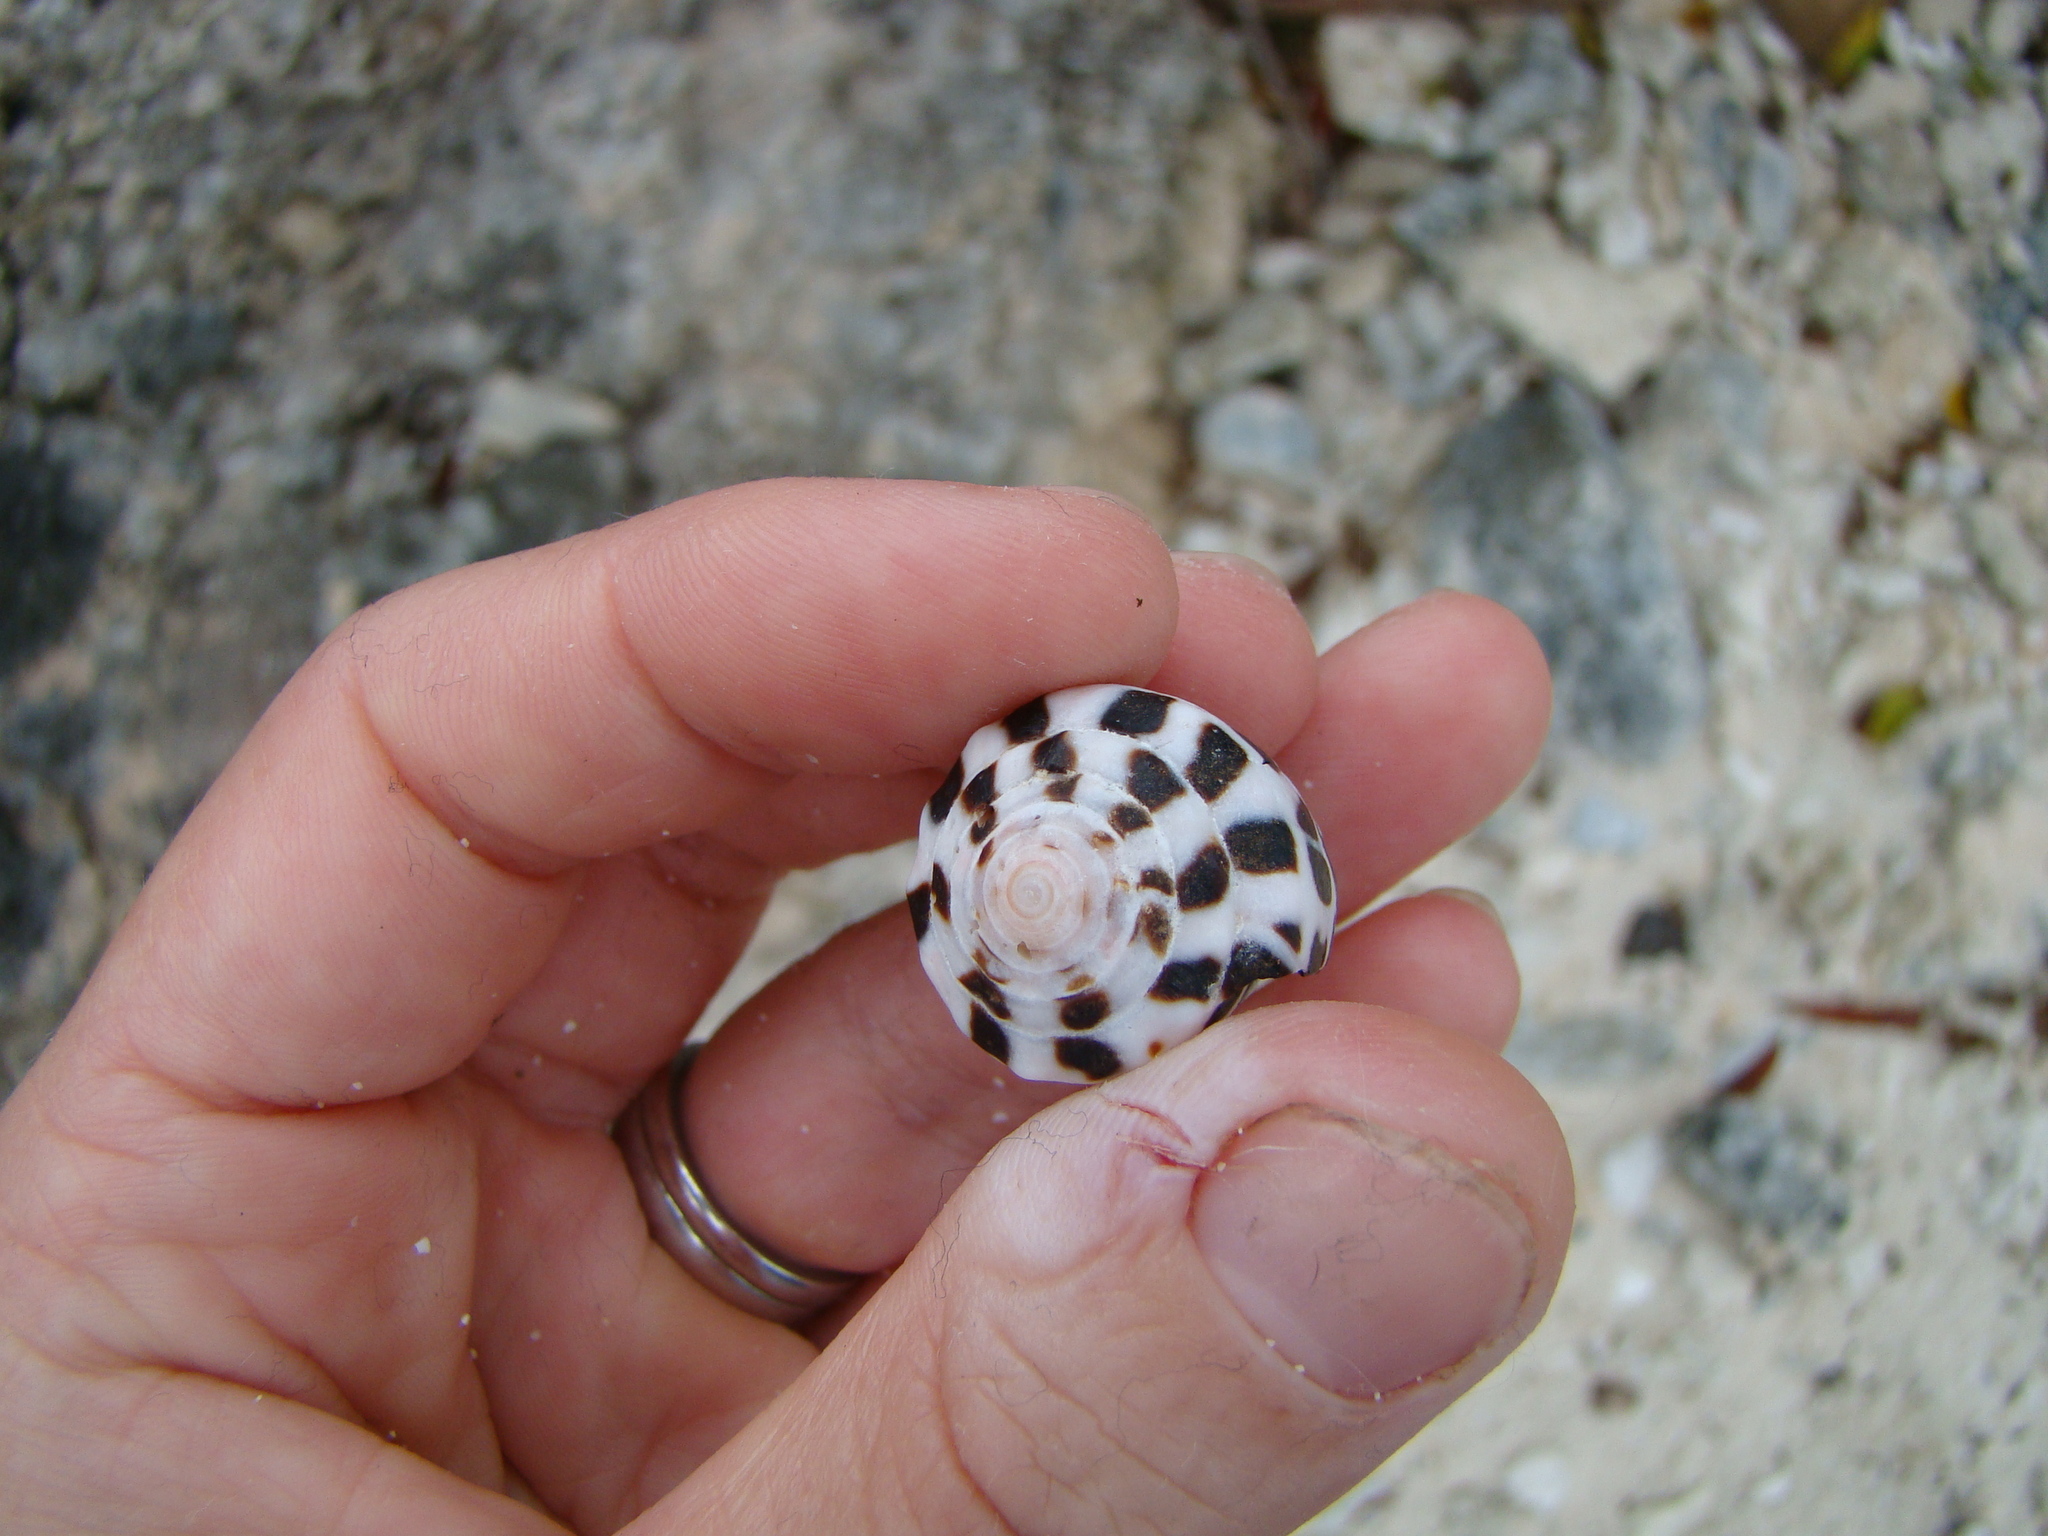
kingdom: Animalia
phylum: Mollusca
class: Gastropoda
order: Neogastropoda
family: Conidae
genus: Conus
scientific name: Conus ebraeus
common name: Hebrew cone
